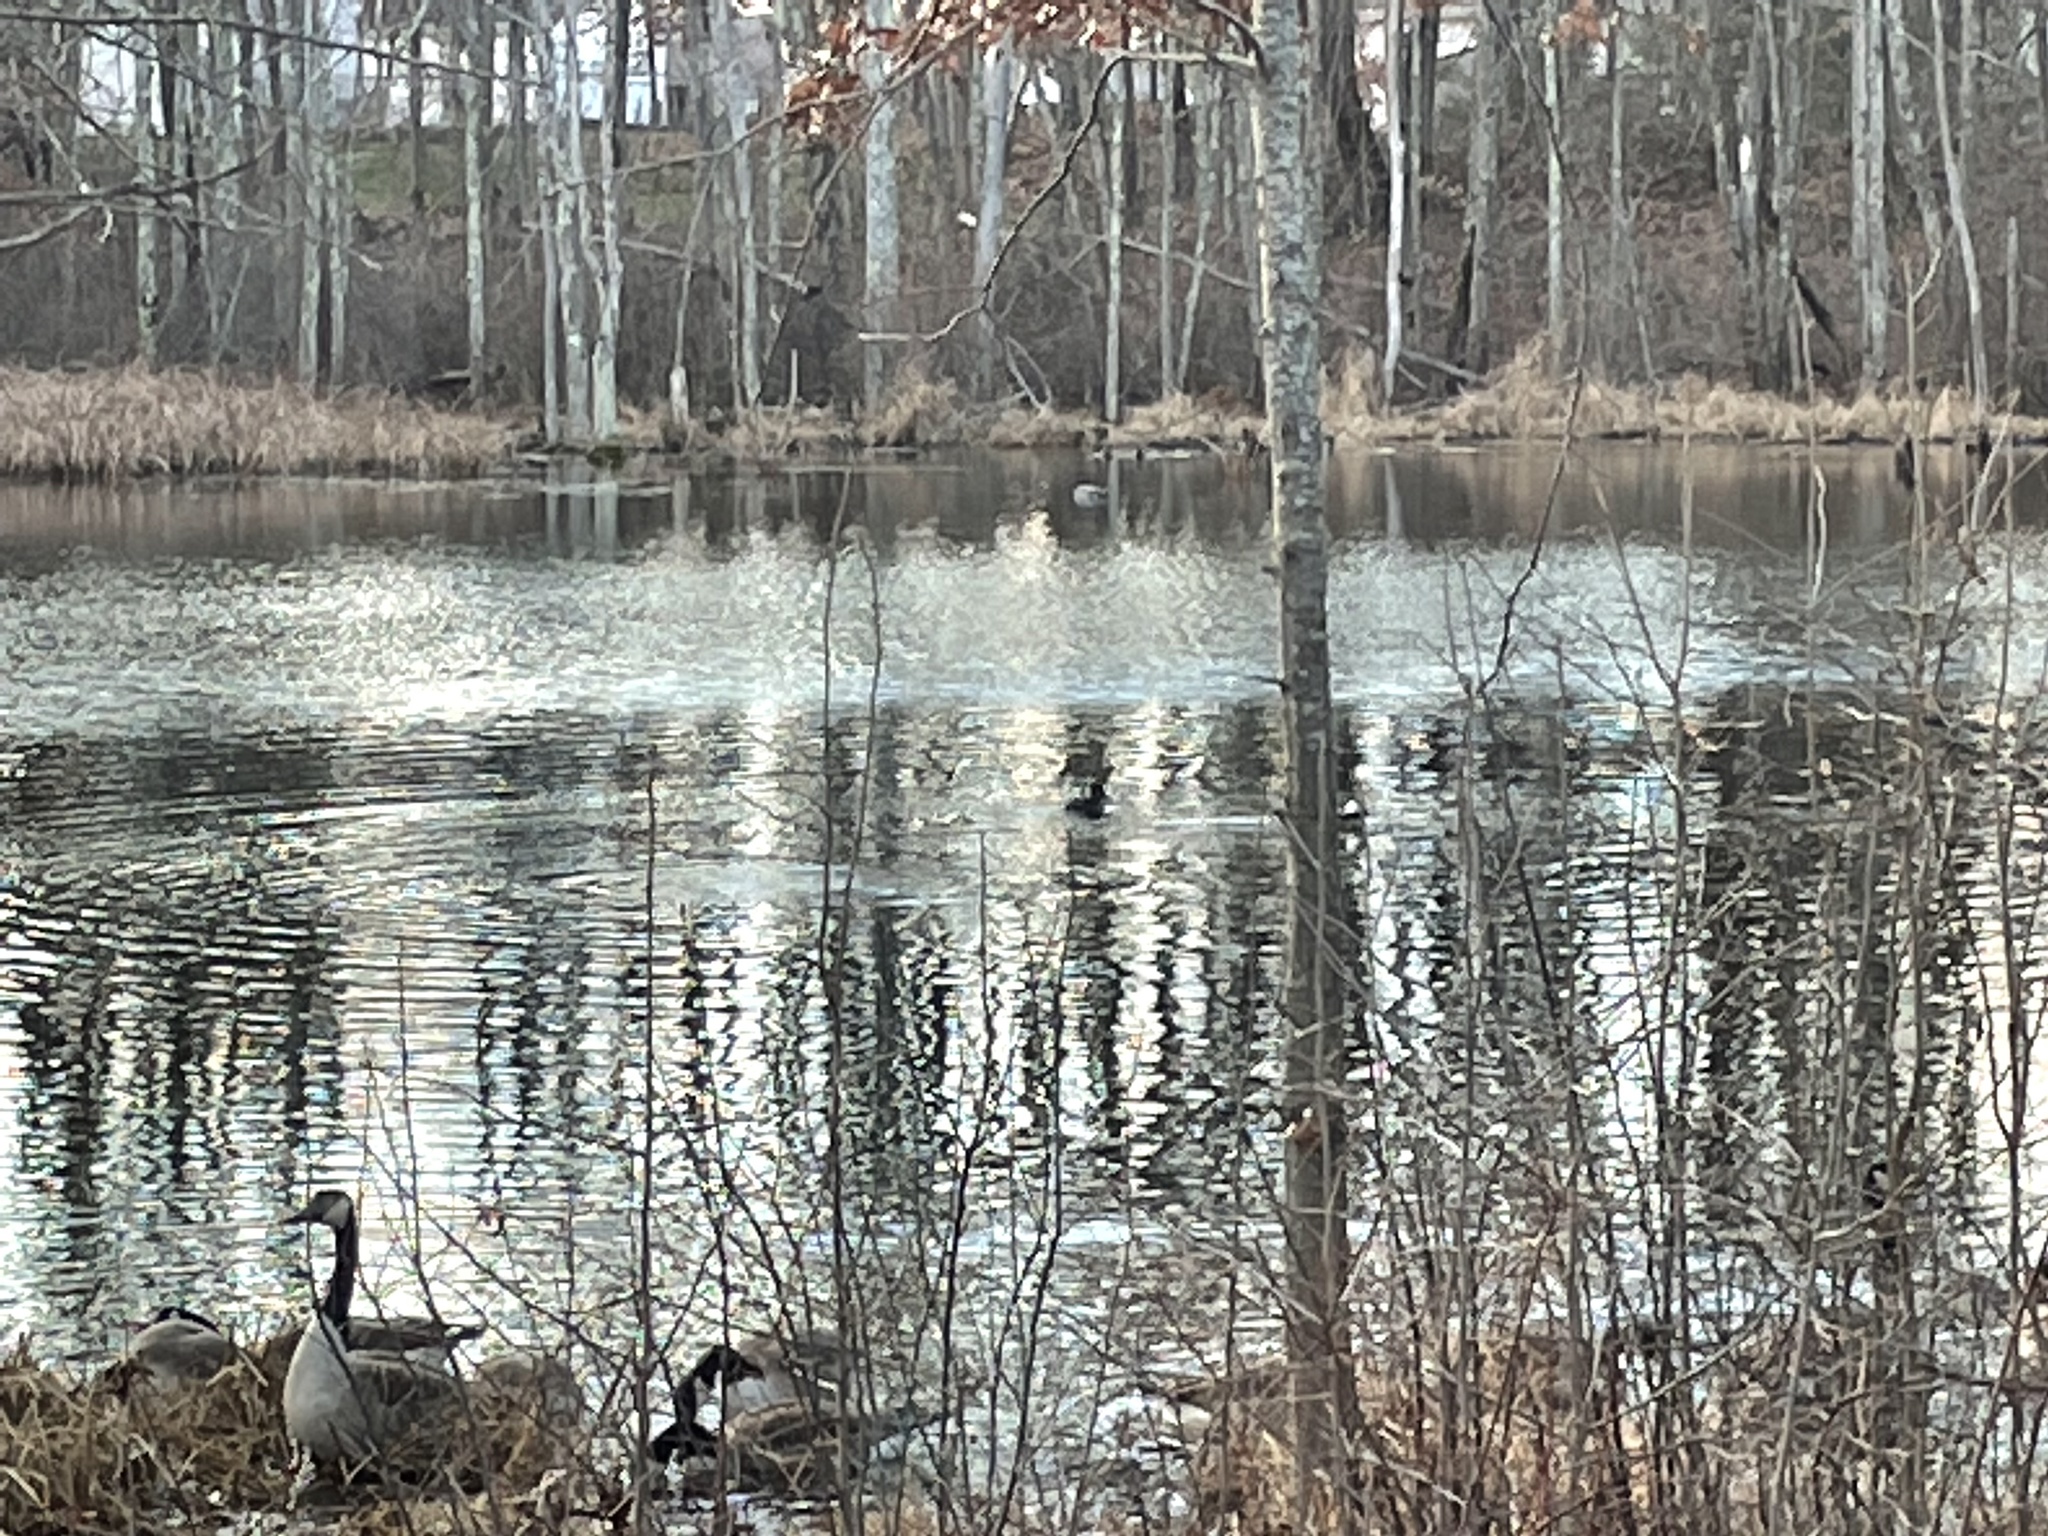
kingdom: Animalia
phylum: Chordata
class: Aves
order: Anseriformes
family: Anatidae
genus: Branta
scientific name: Branta canadensis
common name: Canada goose
